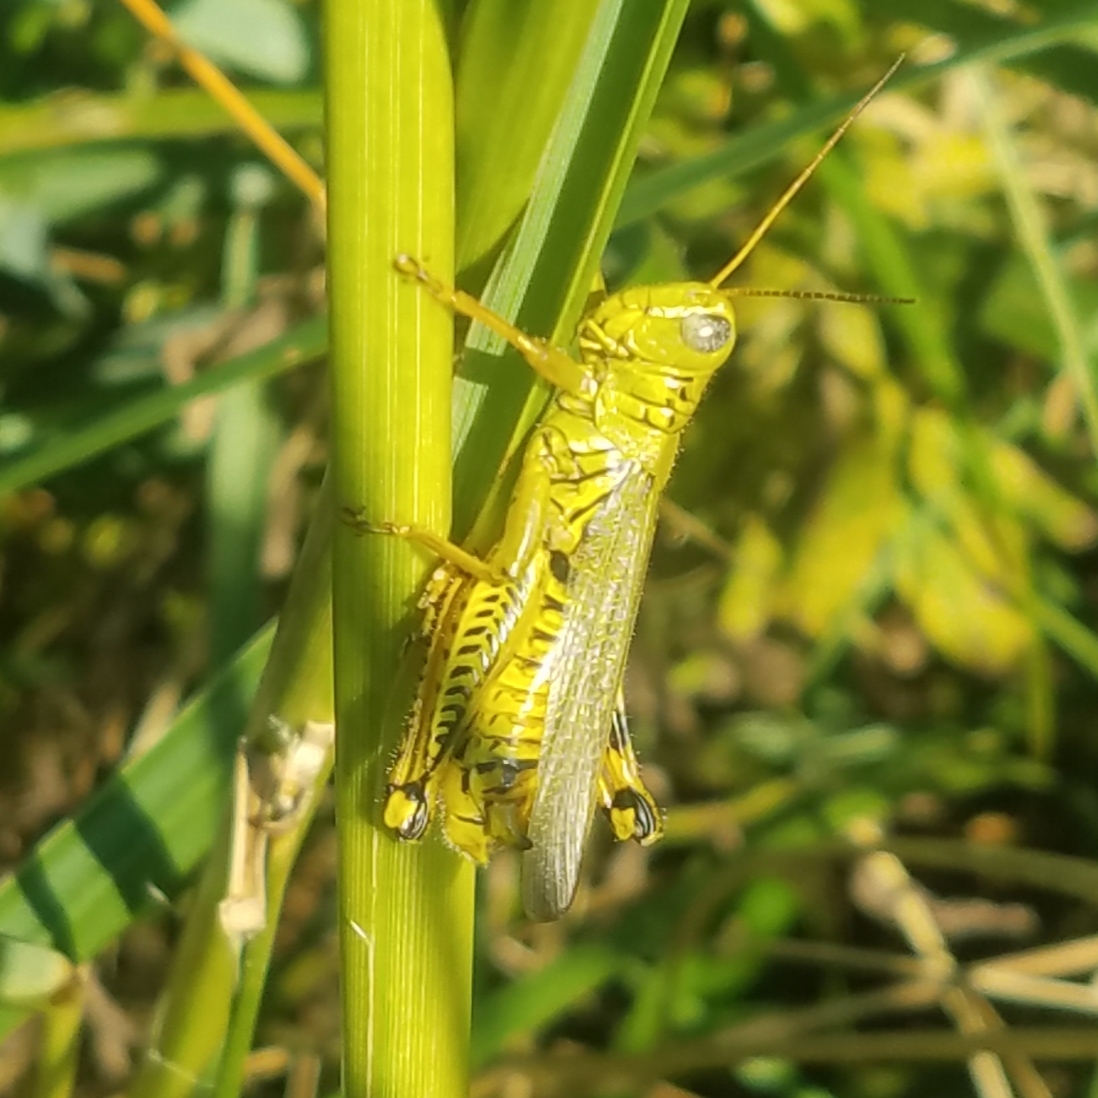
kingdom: Animalia
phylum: Arthropoda
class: Insecta
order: Orthoptera
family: Acrididae
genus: Melanoplus
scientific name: Melanoplus differentialis
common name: Differential grasshopper
